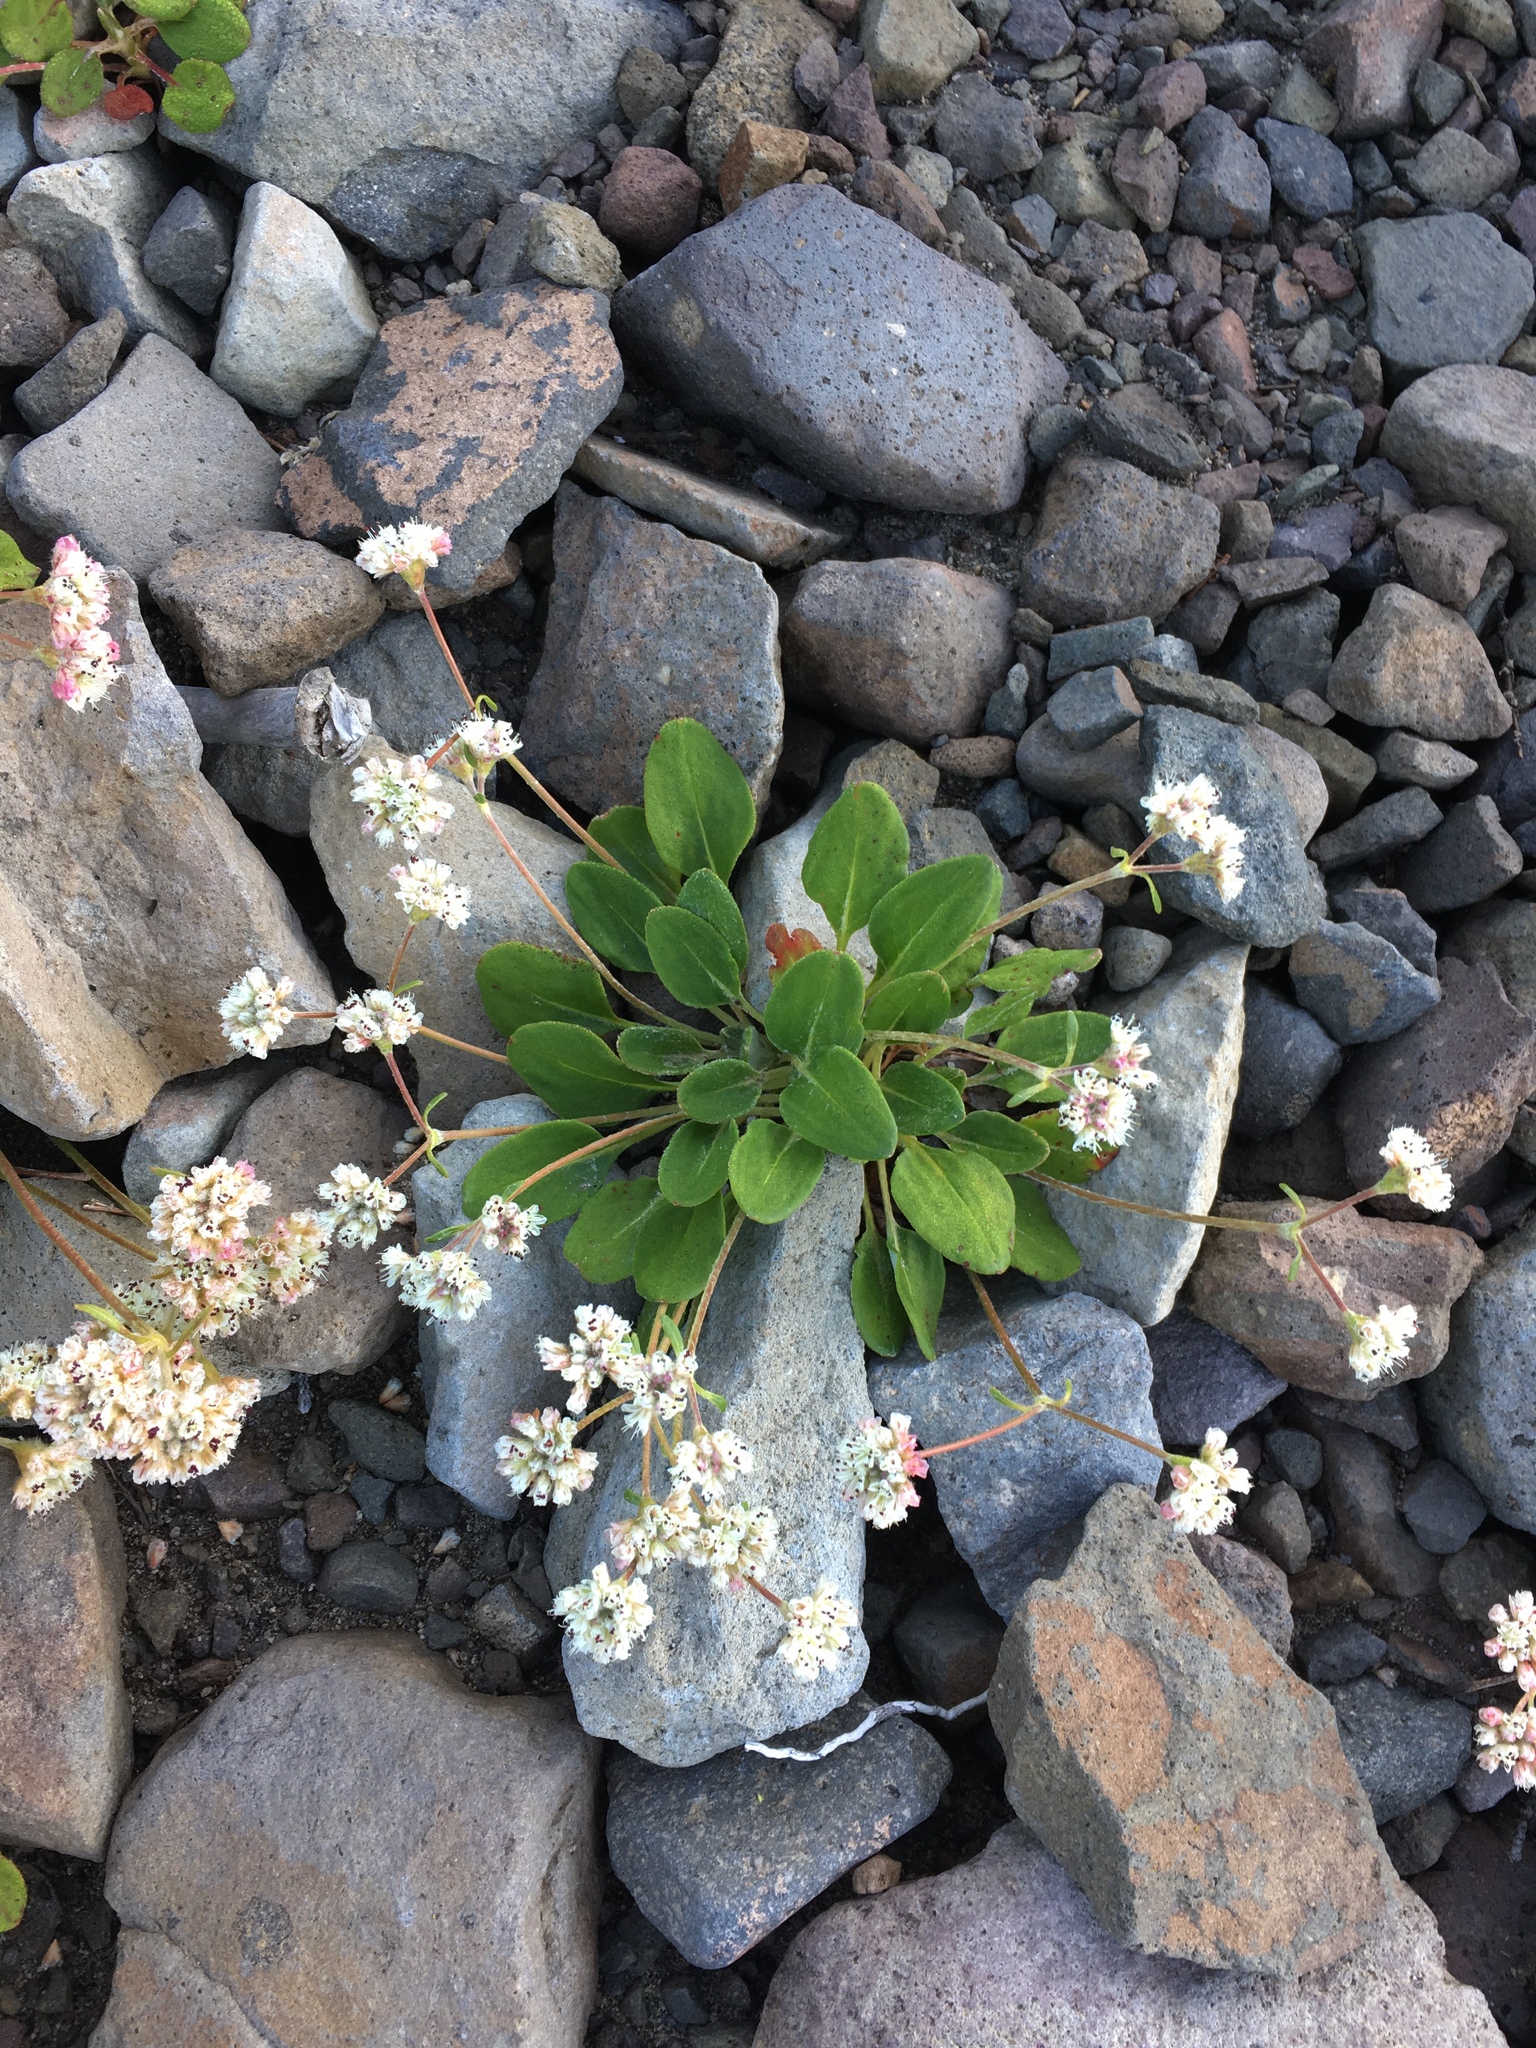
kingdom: Plantae
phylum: Tracheophyta
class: Magnoliopsida
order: Caryophyllales
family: Polygonaceae
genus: Eriogonum
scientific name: Eriogonum pyrolifolium
